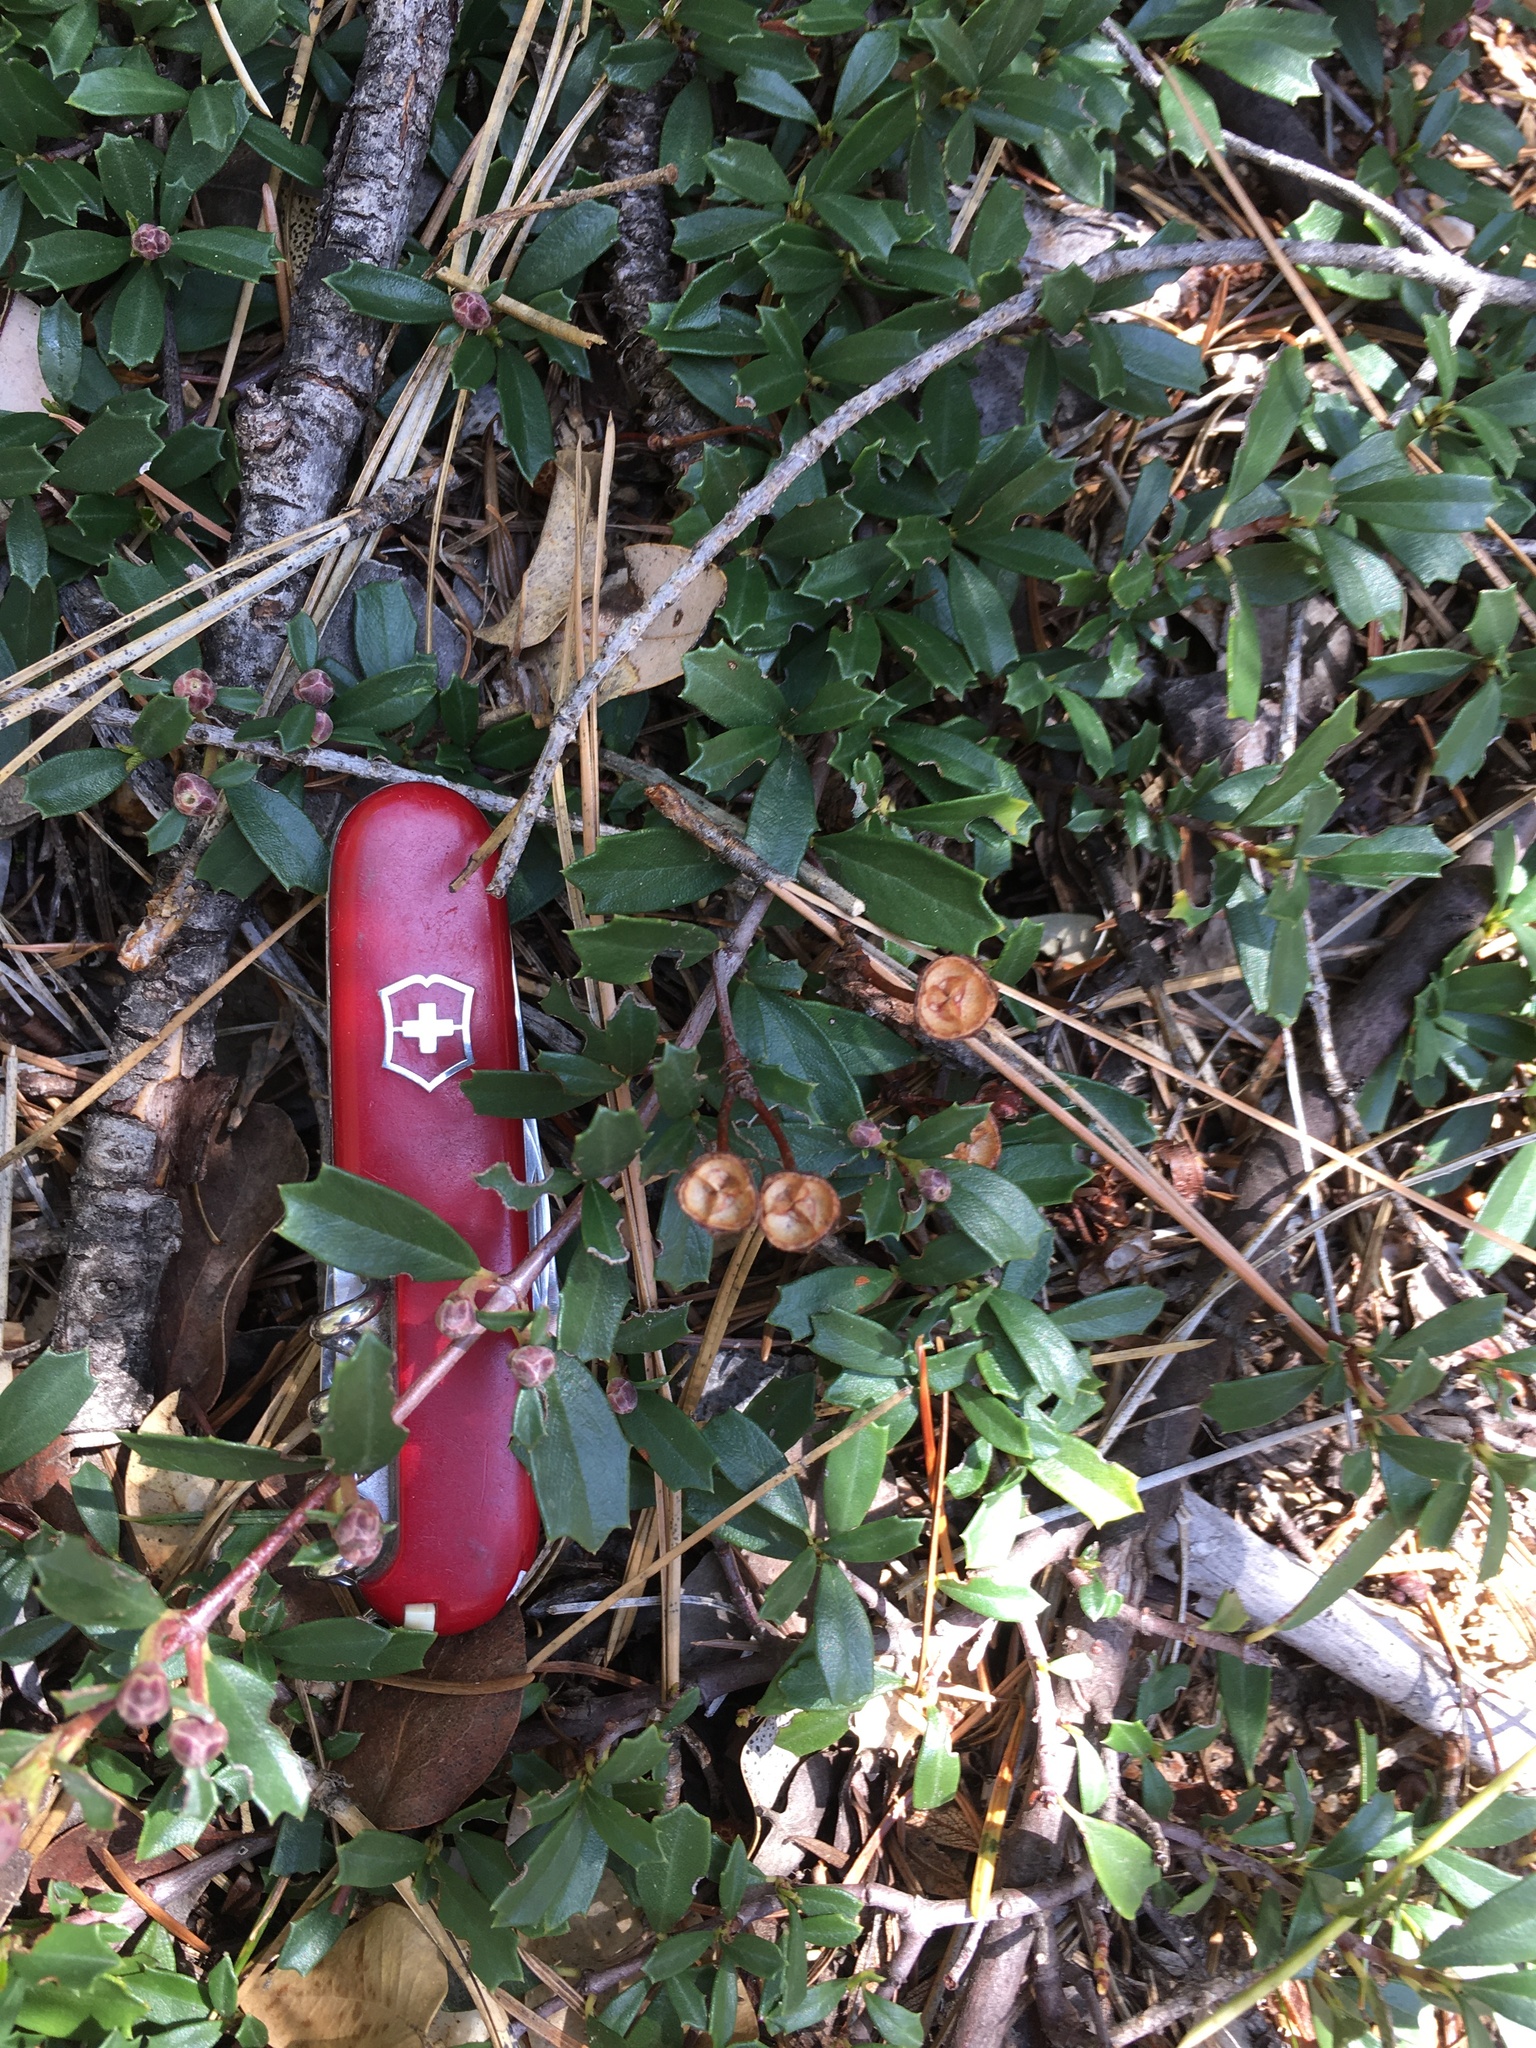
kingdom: Plantae
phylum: Tracheophyta
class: Magnoliopsida
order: Rosales
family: Rhamnaceae
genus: Ceanothus
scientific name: Ceanothus prostratus
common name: Mahala-mat
